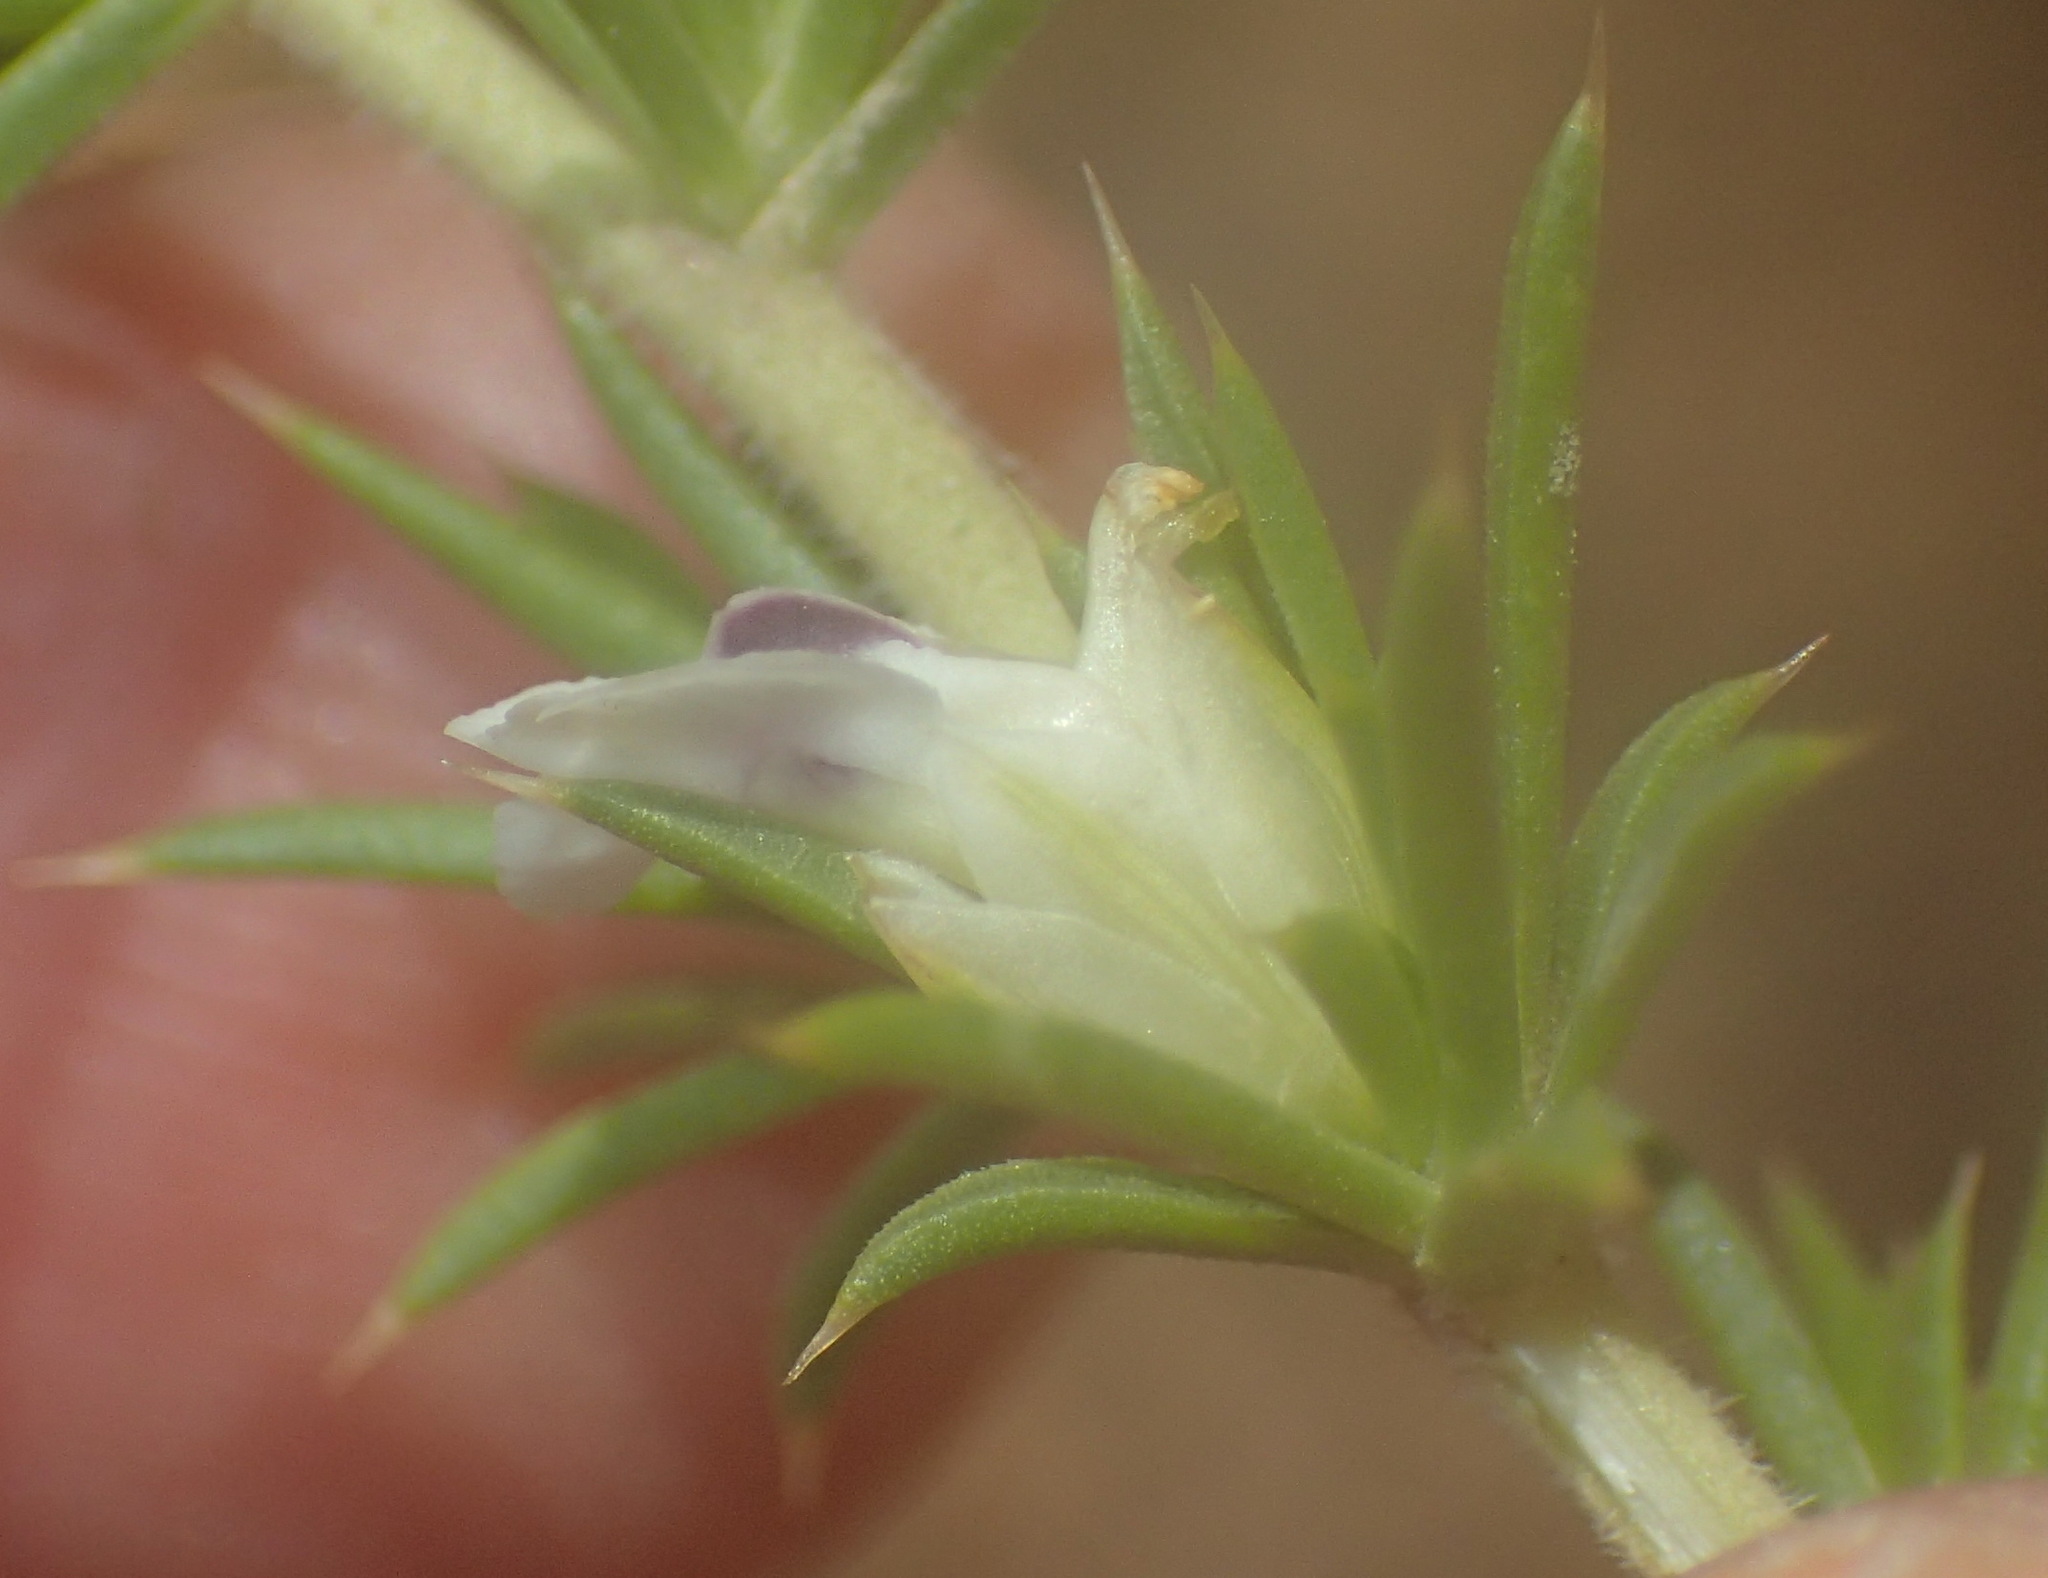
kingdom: Plantae
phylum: Tracheophyta
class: Magnoliopsida
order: Fabales
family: Polygalaceae
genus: Muraltia
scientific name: Muraltia ericifolia
